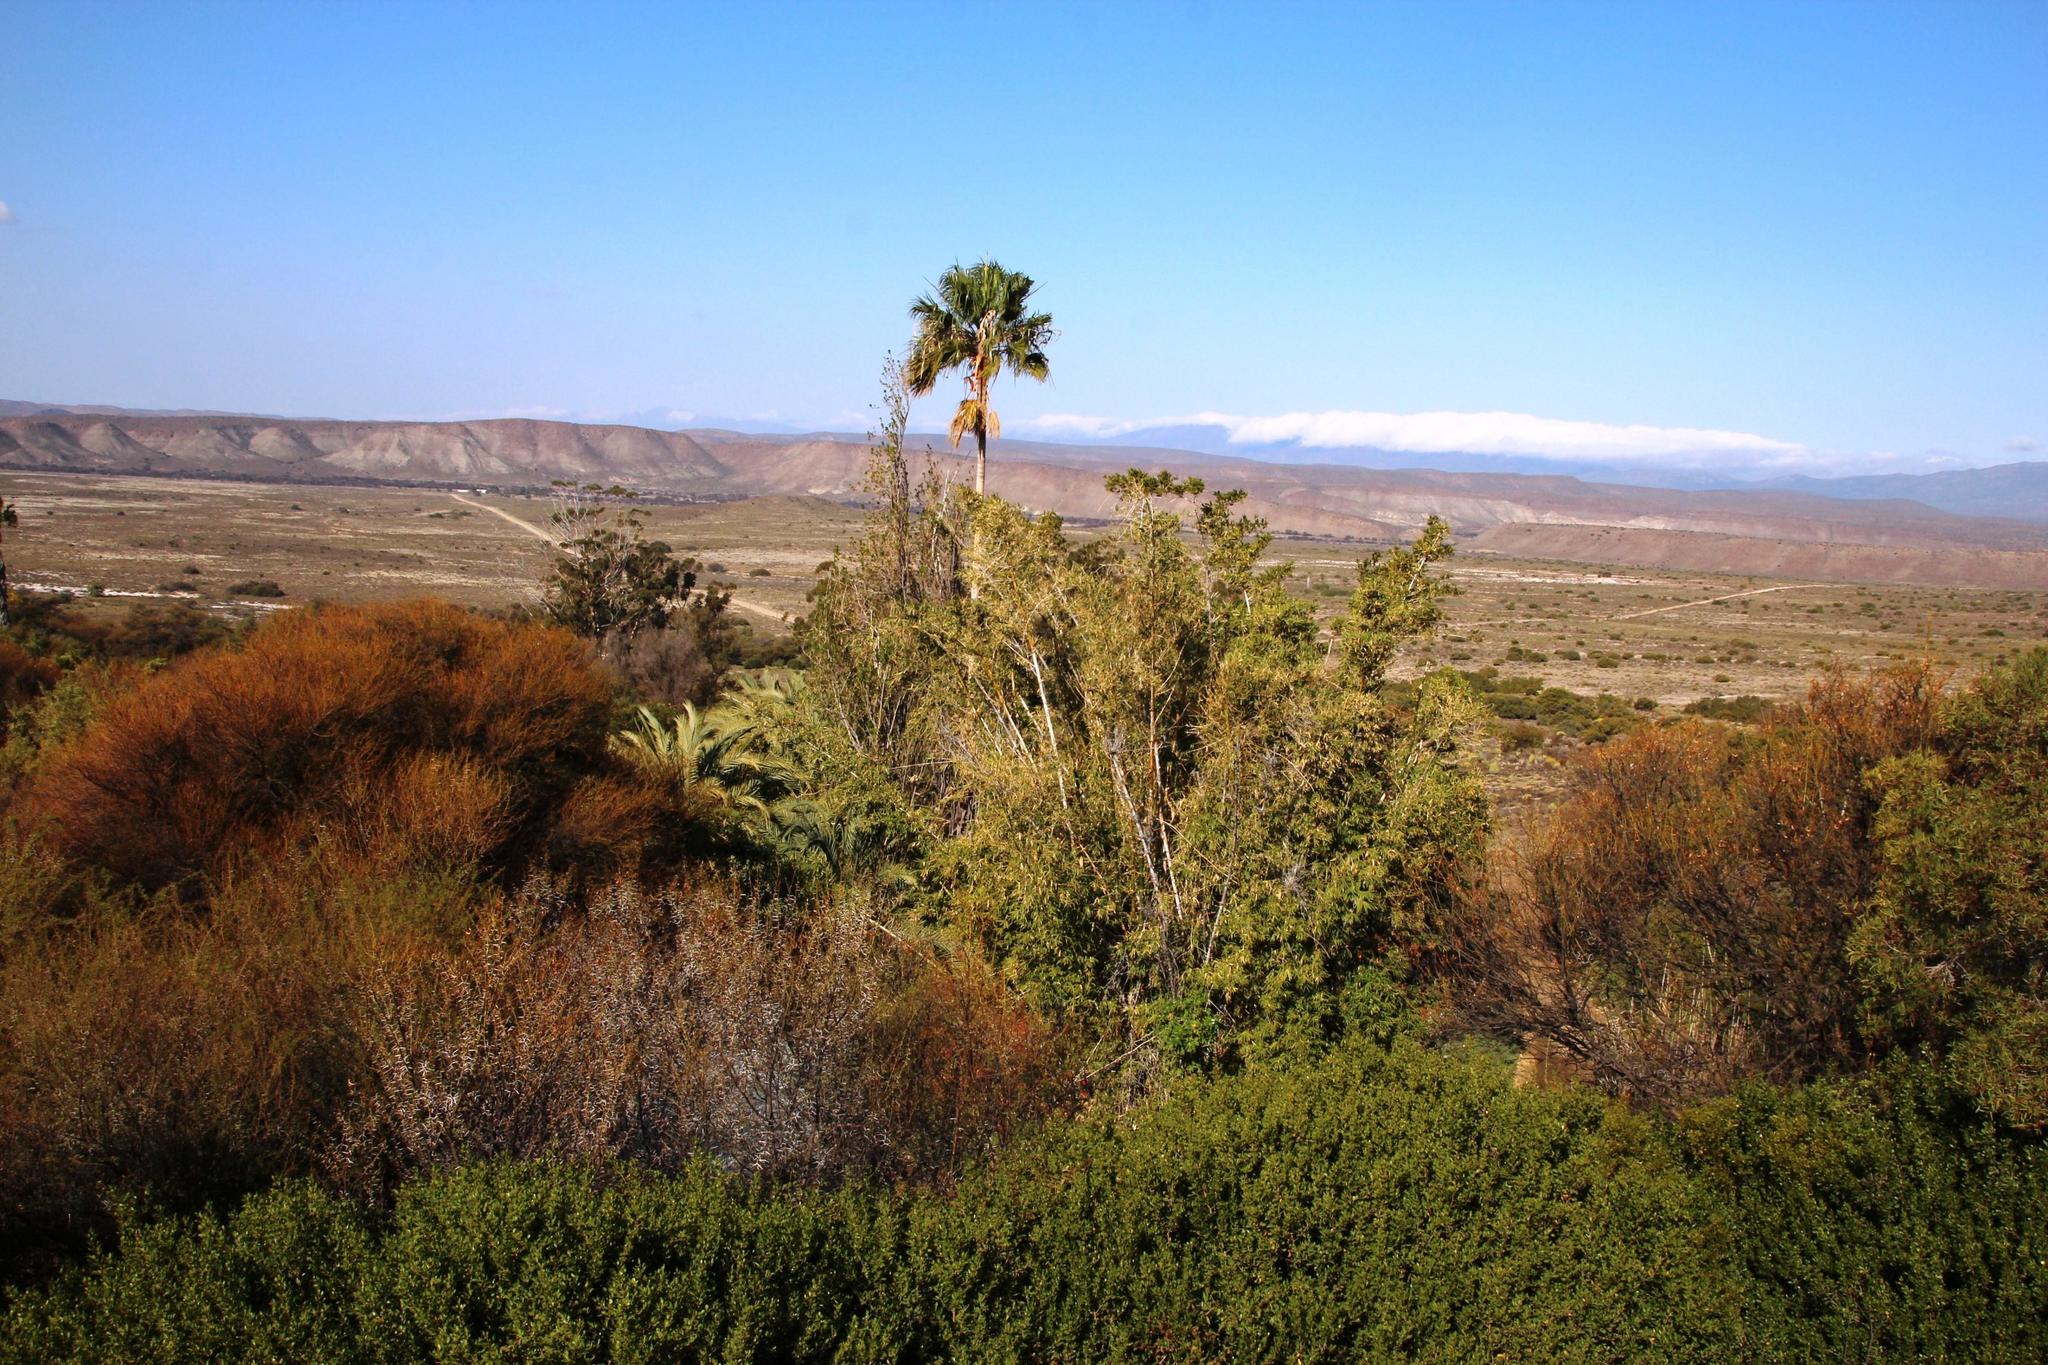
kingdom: Plantae
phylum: Tracheophyta
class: Liliopsida
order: Arecales
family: Arecaceae
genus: Washingtonia
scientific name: Washingtonia robusta
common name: Mexican fan palm
